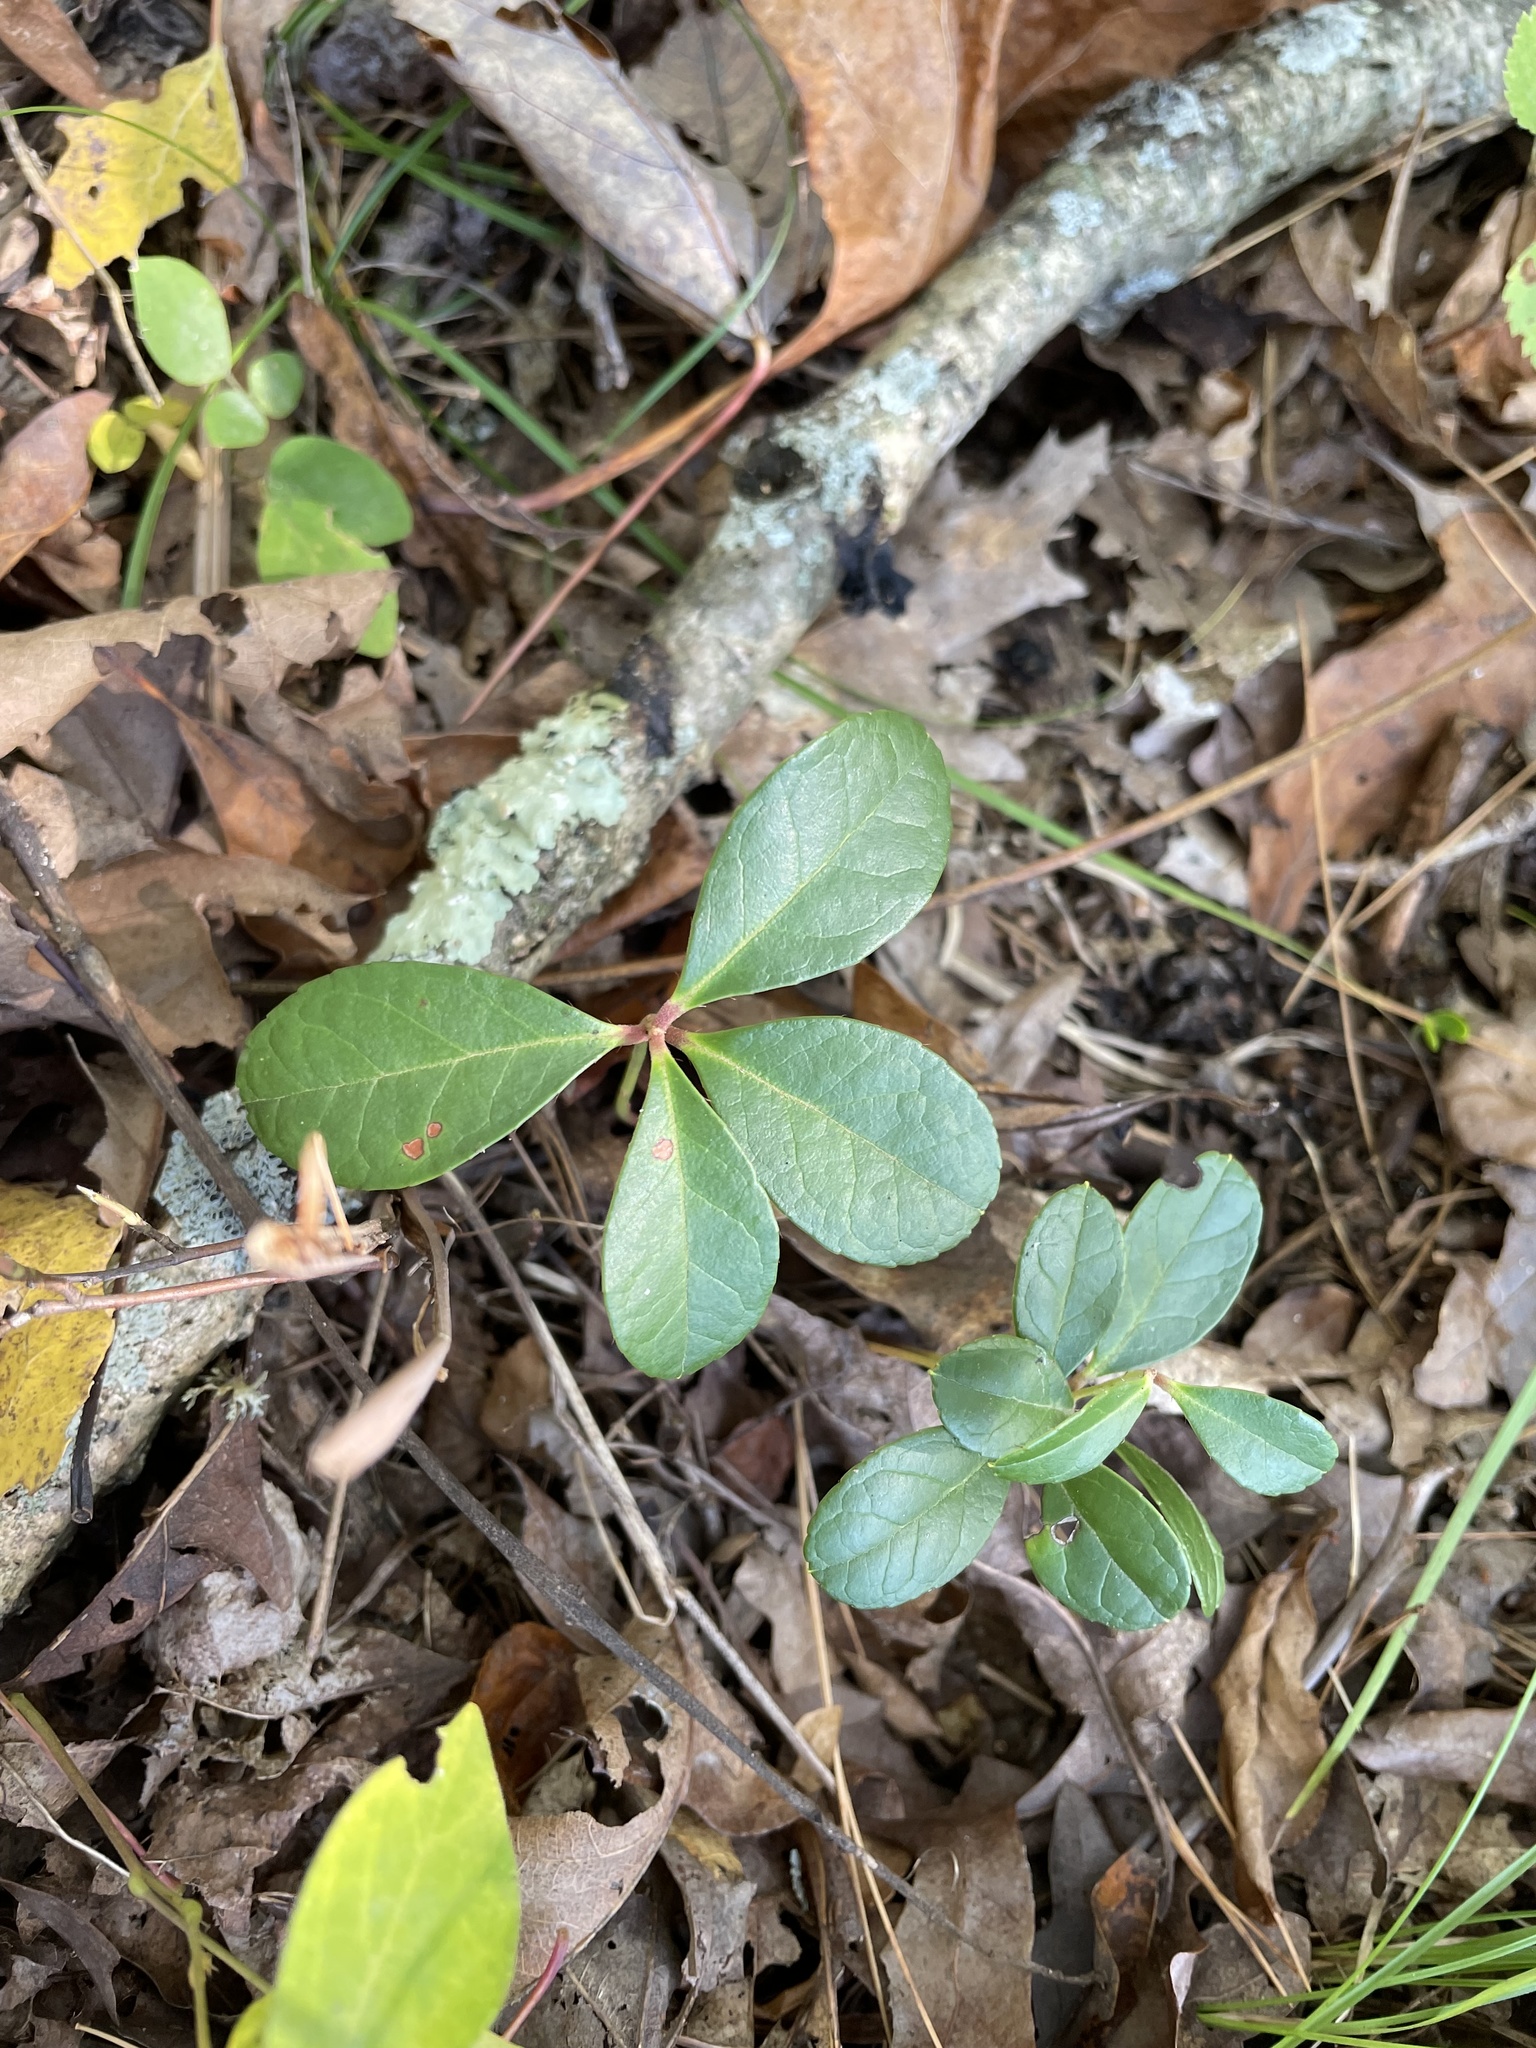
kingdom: Plantae
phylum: Tracheophyta
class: Magnoliopsida
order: Ericales
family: Ericaceae
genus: Gaultheria
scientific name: Gaultheria procumbens
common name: Checkerberry
